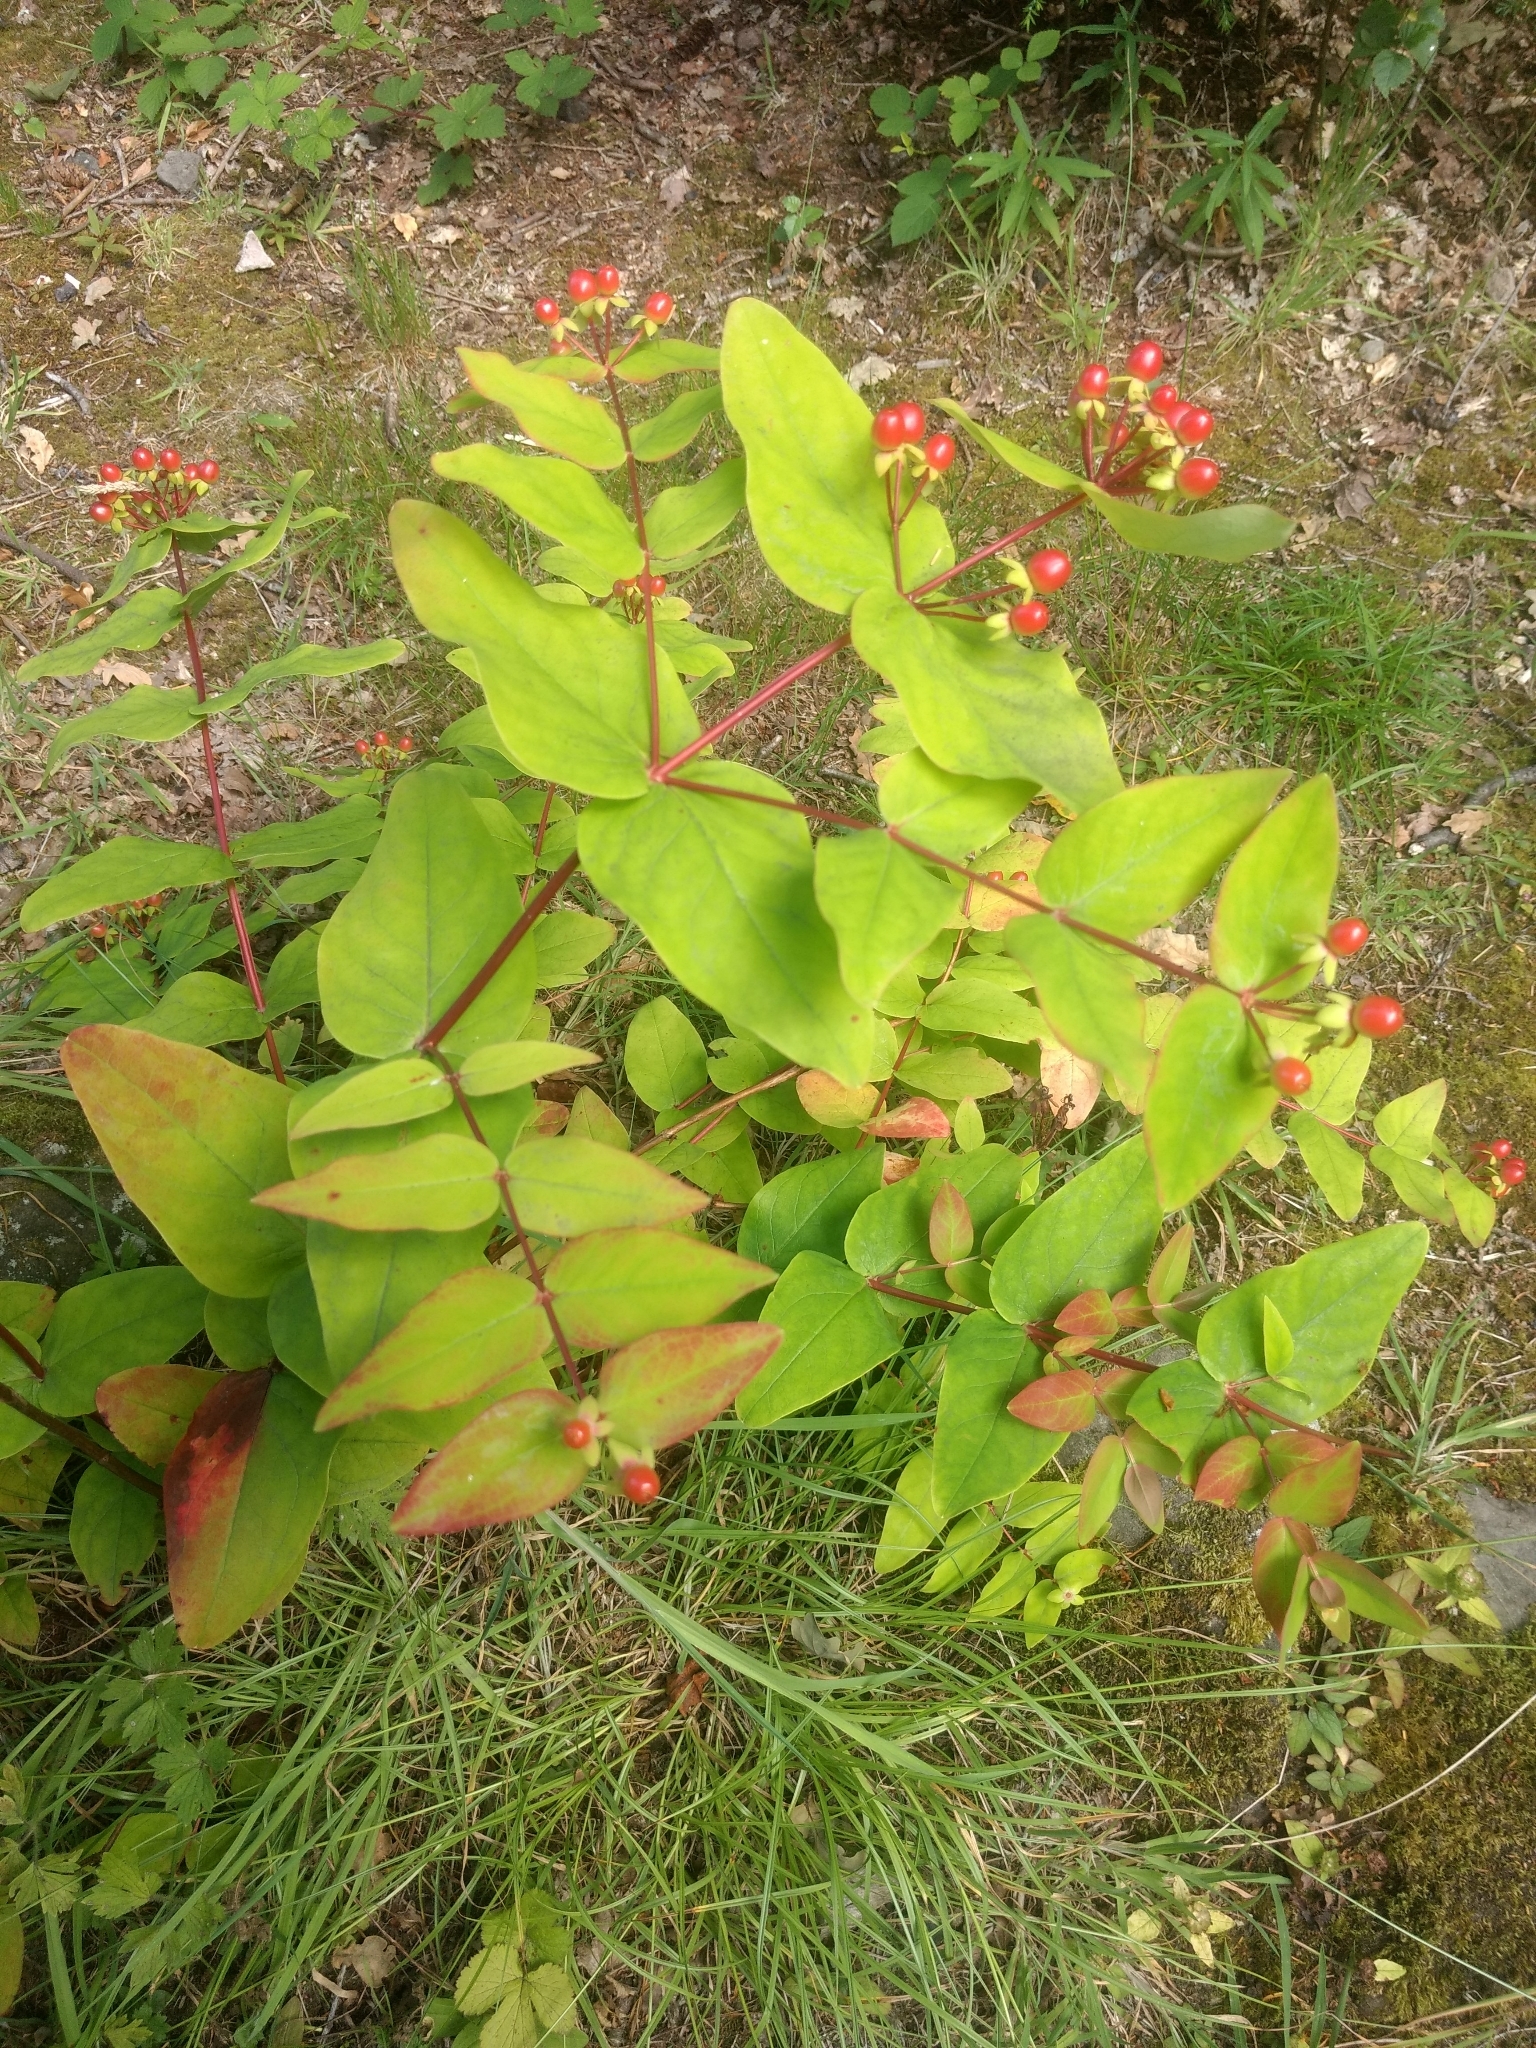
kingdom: Plantae
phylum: Tracheophyta
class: Magnoliopsida
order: Malpighiales
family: Hypericaceae
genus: Hypericum
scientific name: Hypericum androsaemum
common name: Sweet-amber
